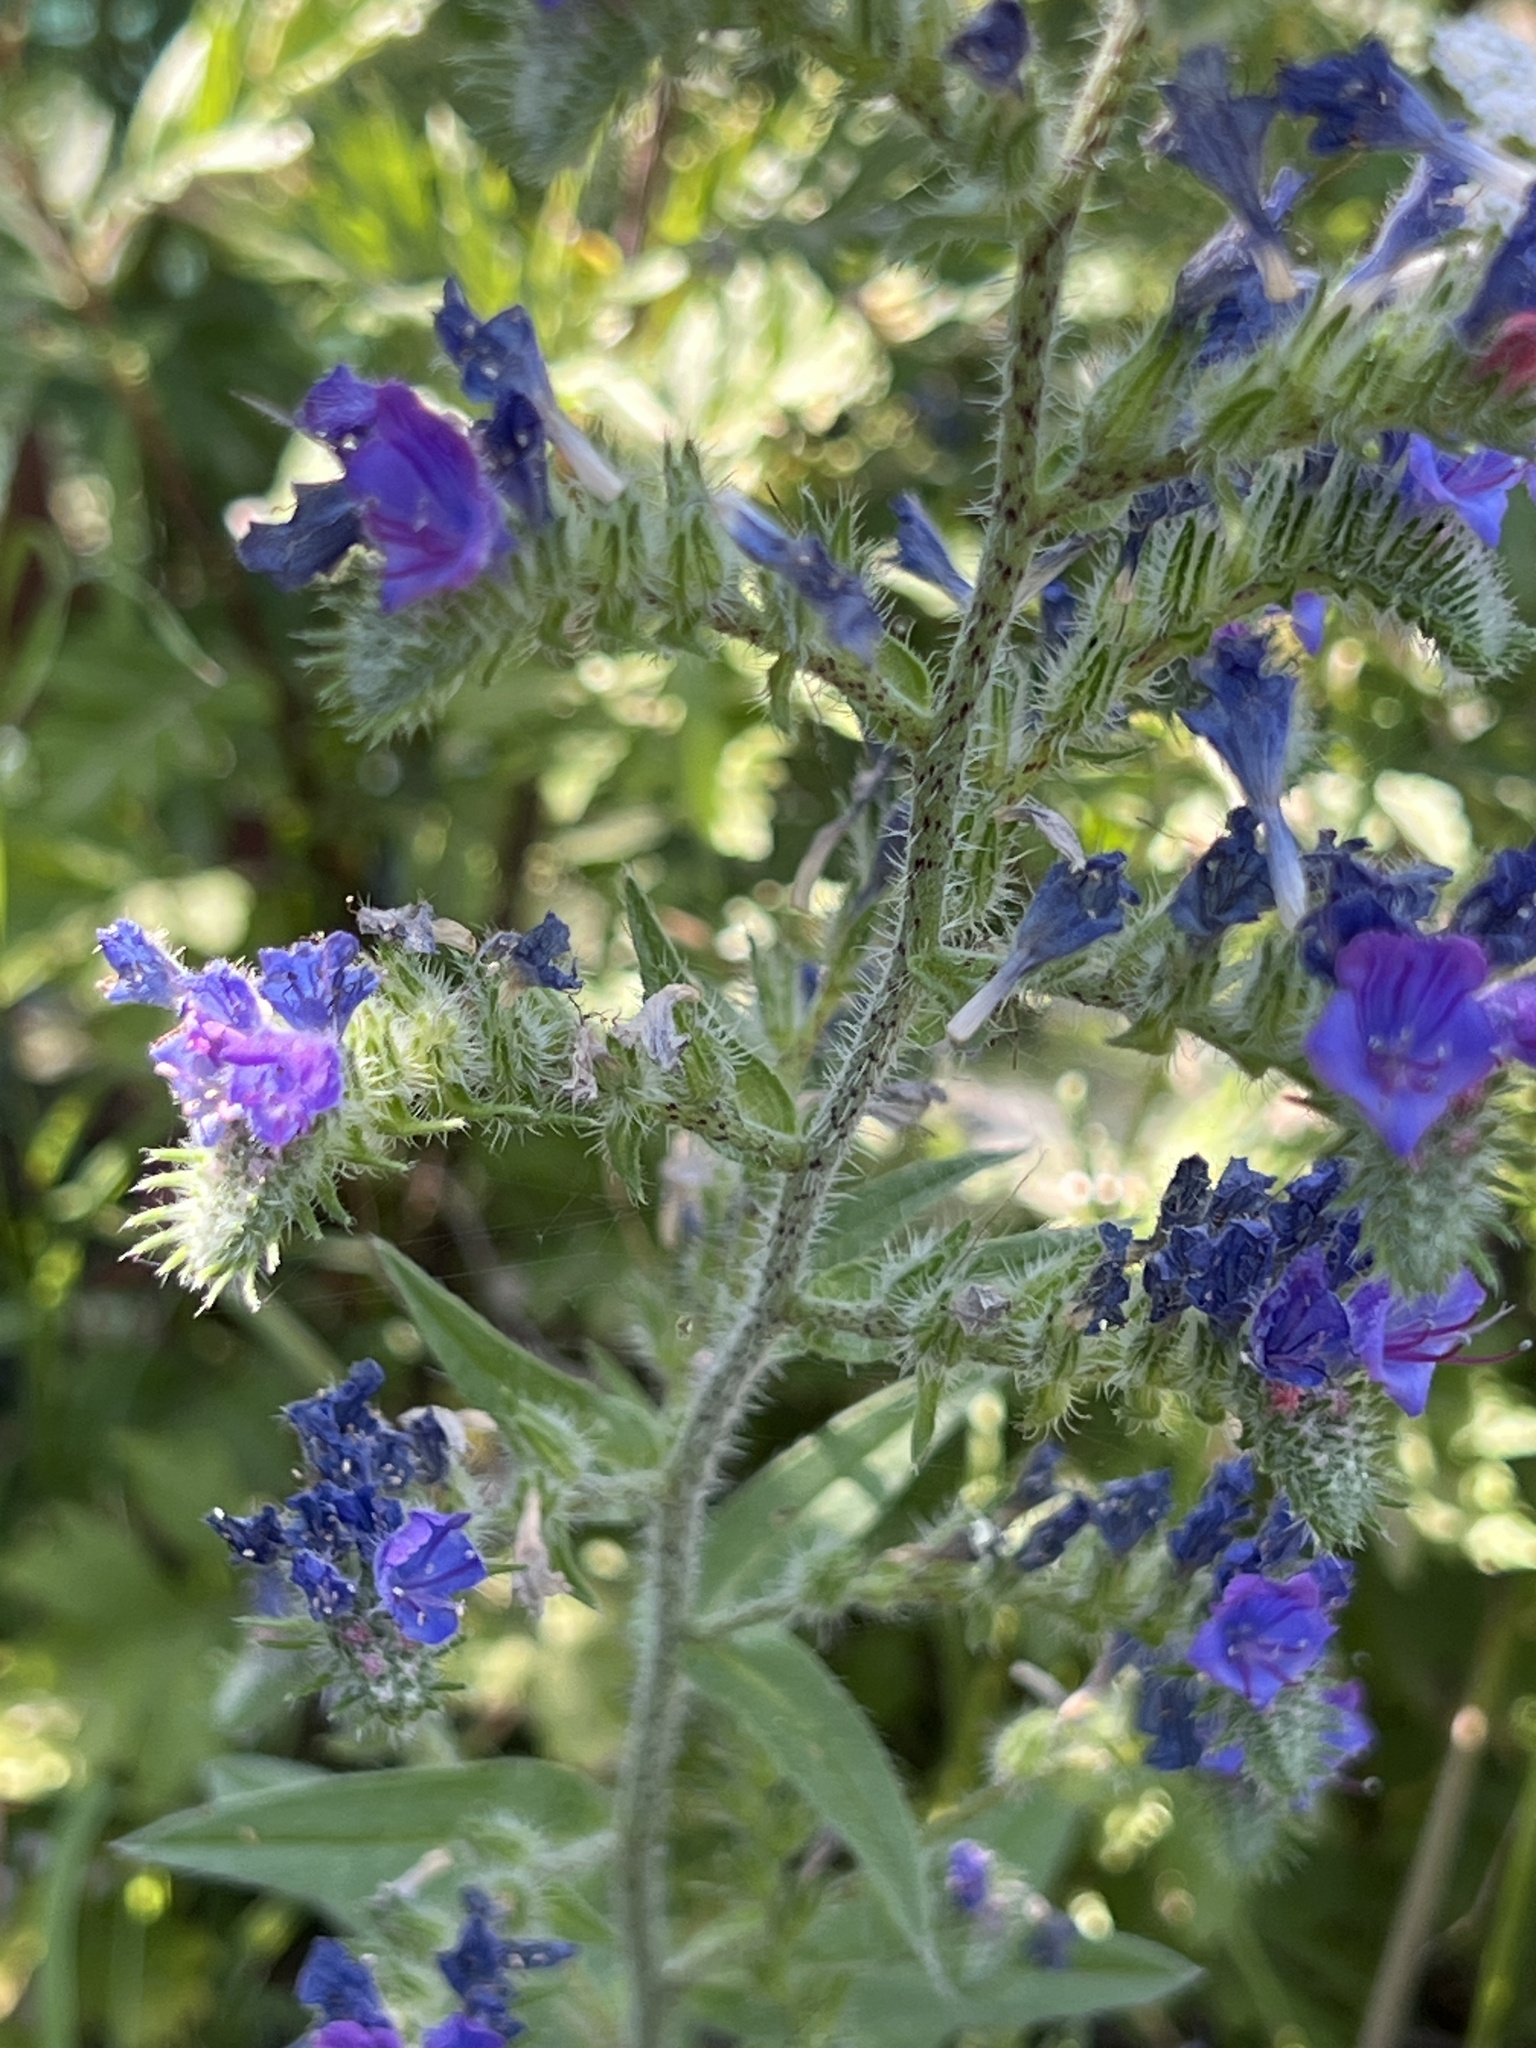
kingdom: Plantae
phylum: Tracheophyta
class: Magnoliopsida
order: Boraginales
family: Boraginaceae
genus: Echium
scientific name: Echium vulgare
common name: Common viper's bugloss
